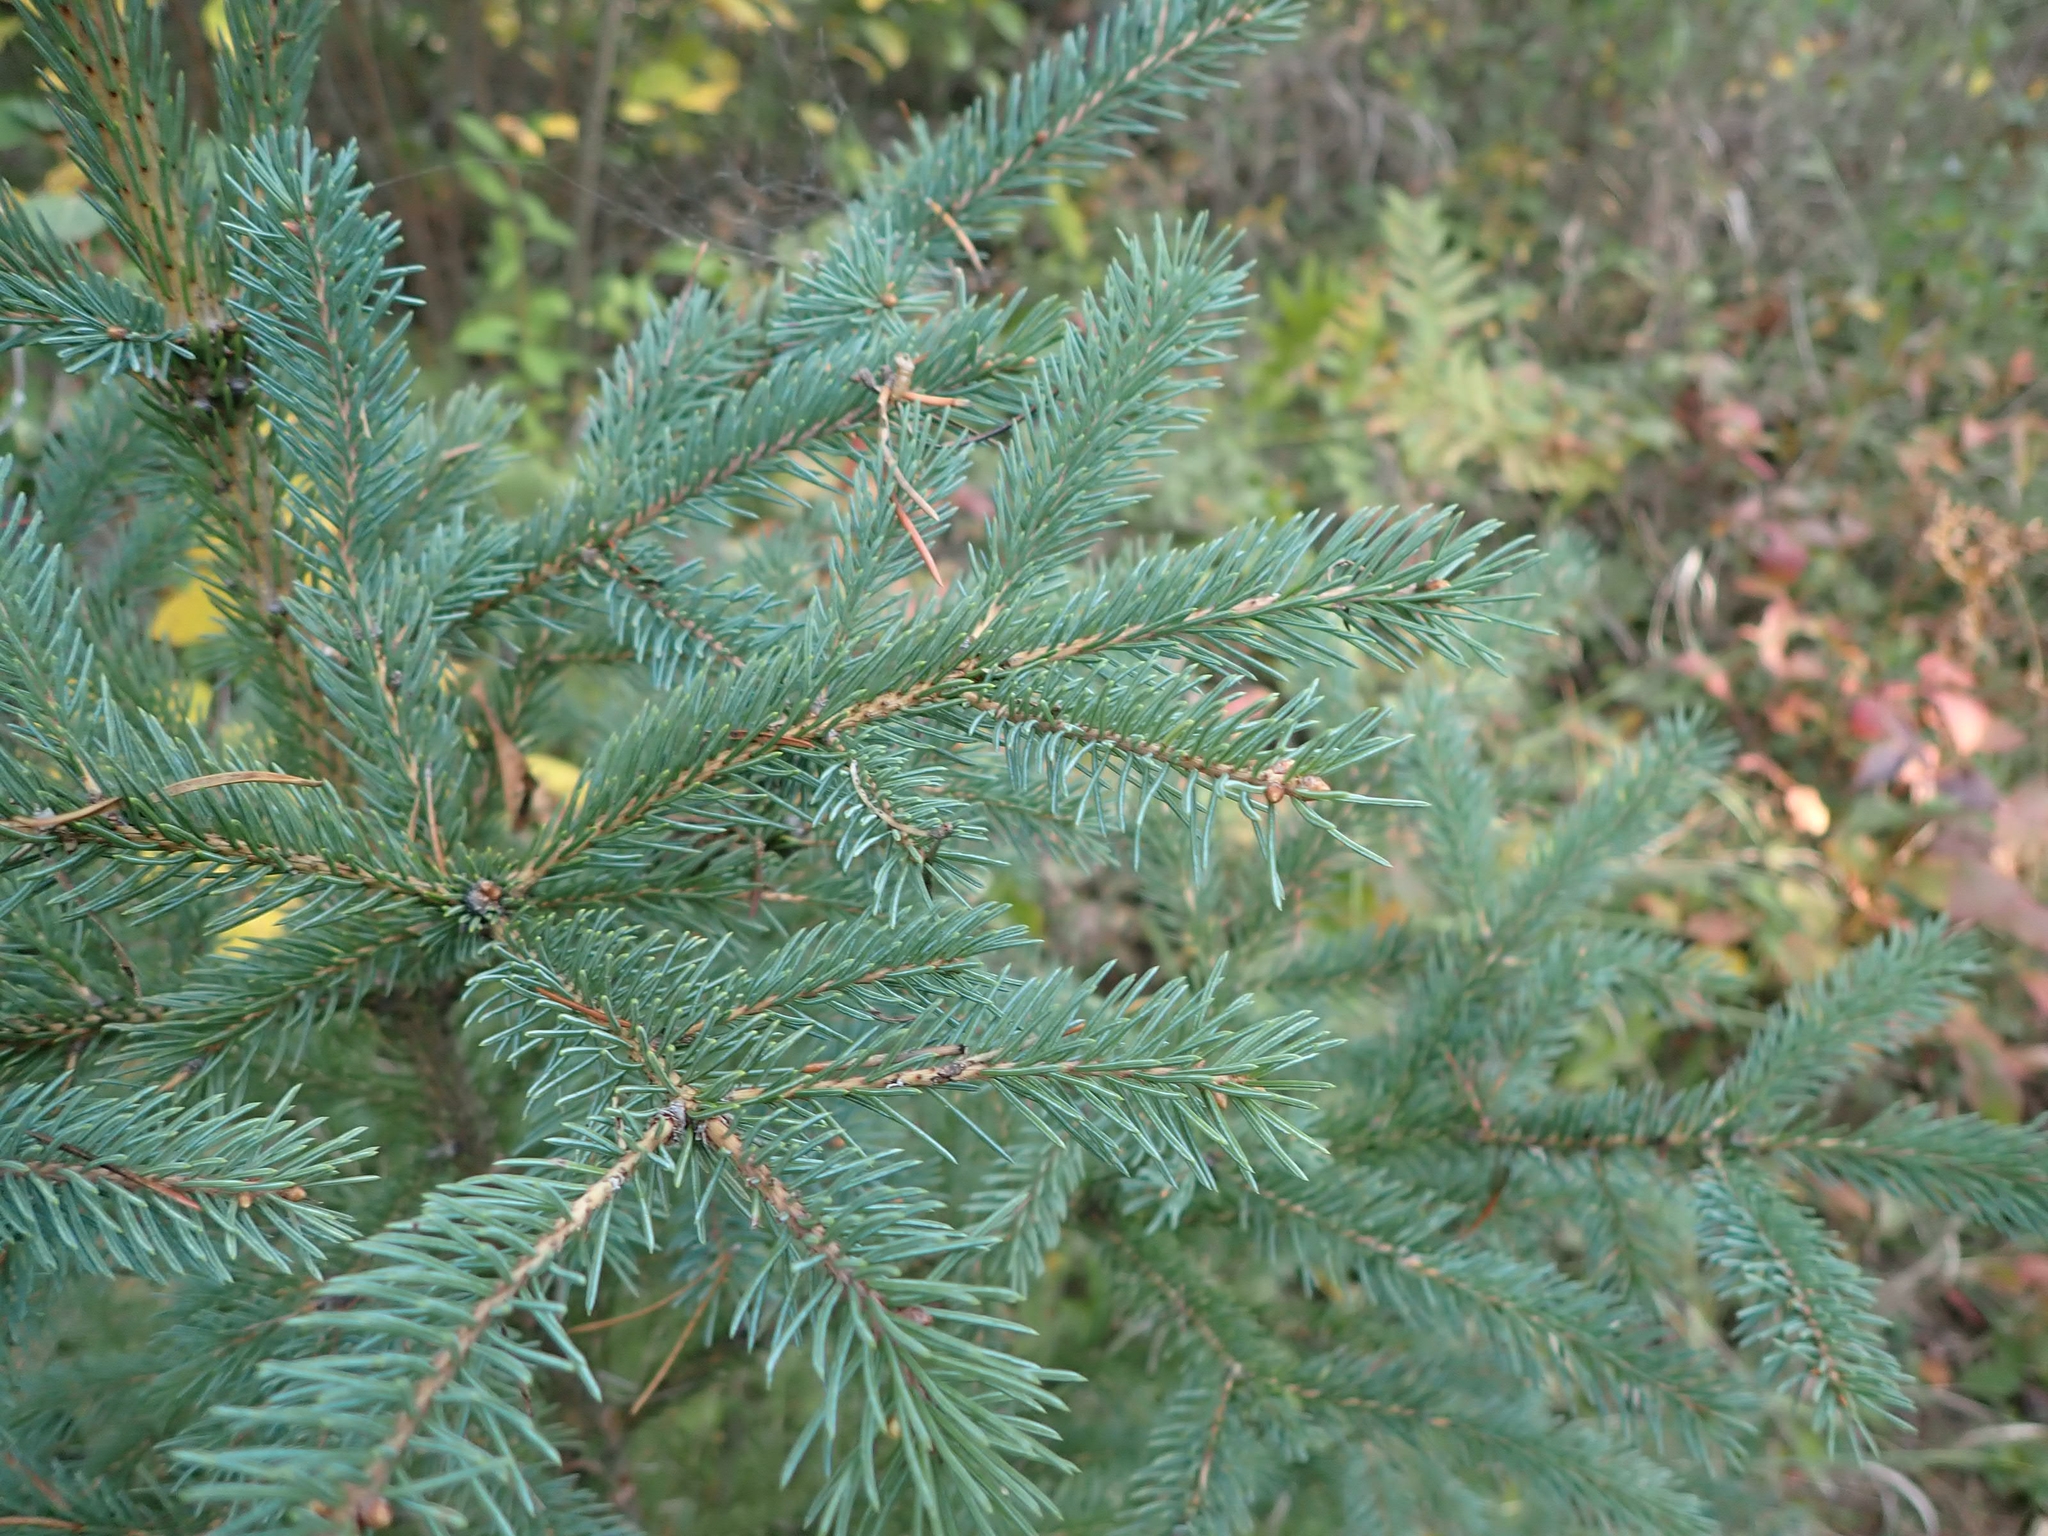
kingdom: Plantae
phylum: Tracheophyta
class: Pinopsida
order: Pinales
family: Pinaceae
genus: Picea
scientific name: Picea glauca
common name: White spruce
